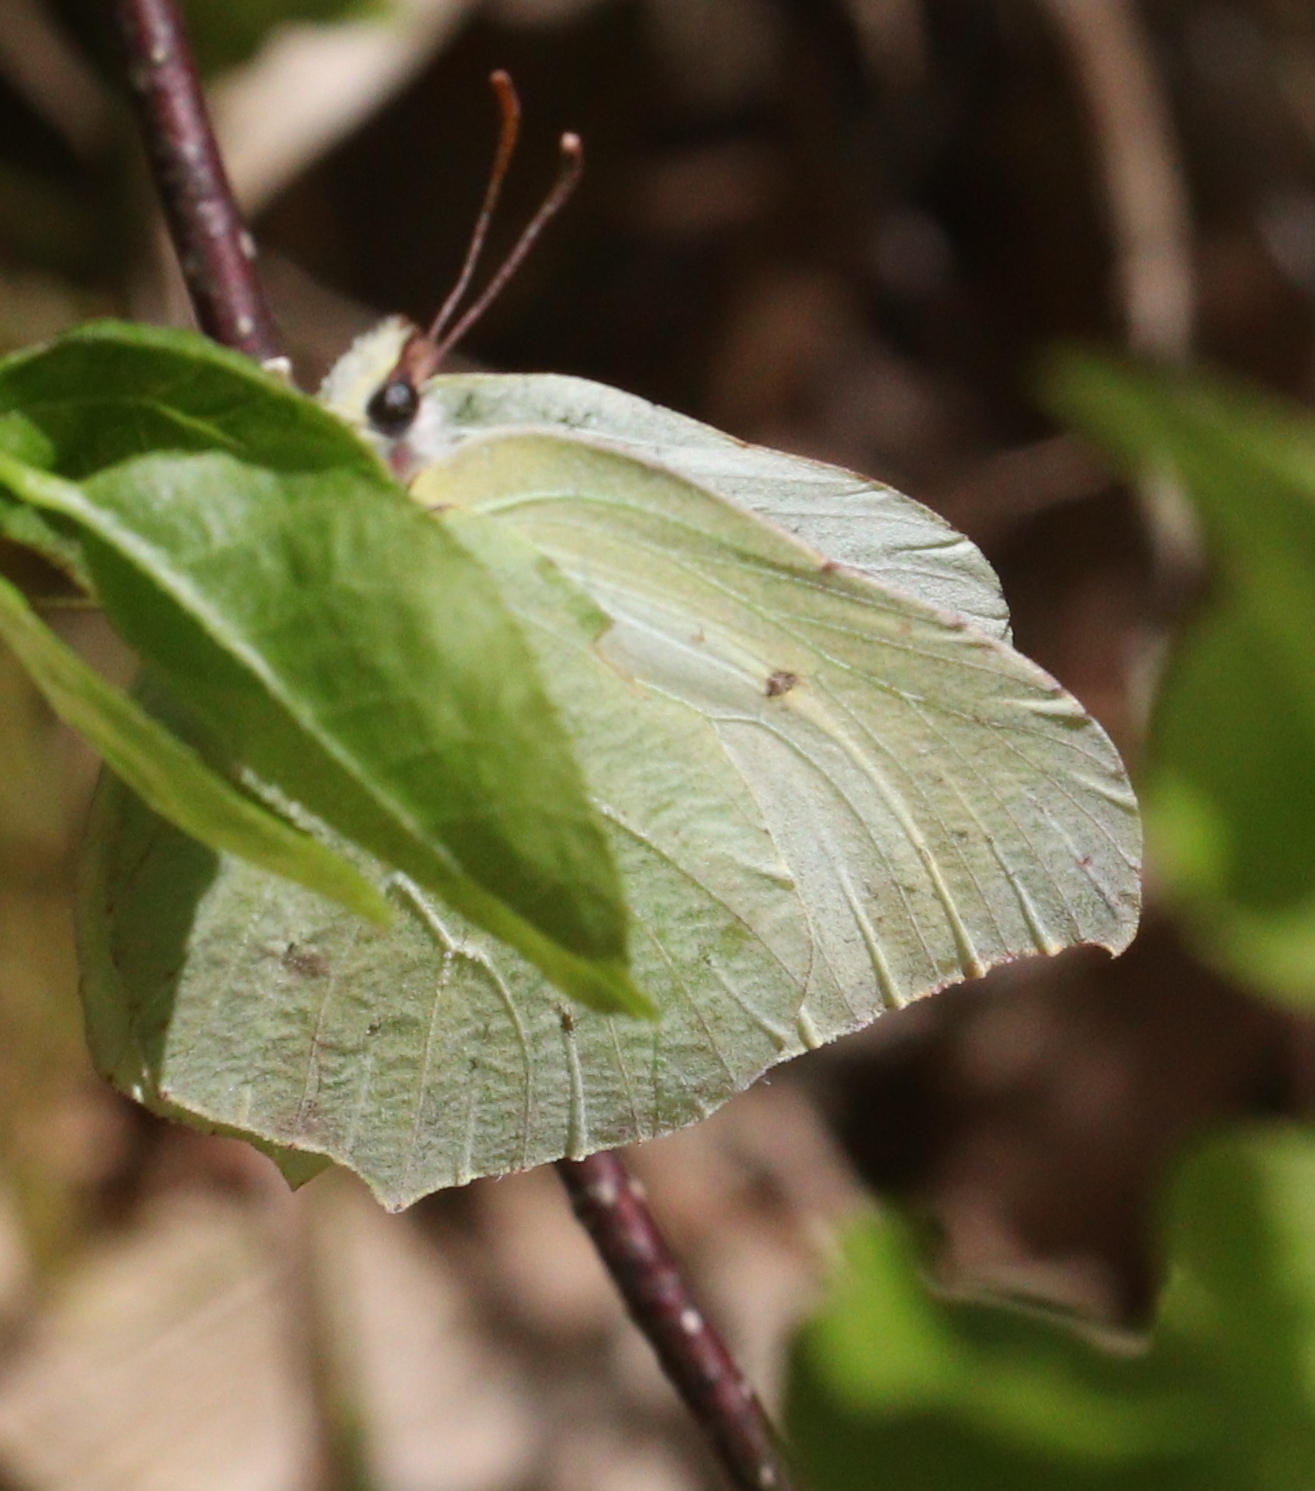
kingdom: Animalia
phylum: Arthropoda
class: Insecta
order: Lepidoptera
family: Pieridae
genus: Gonepteryx
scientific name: Gonepteryx rhamni
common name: Brimstone
